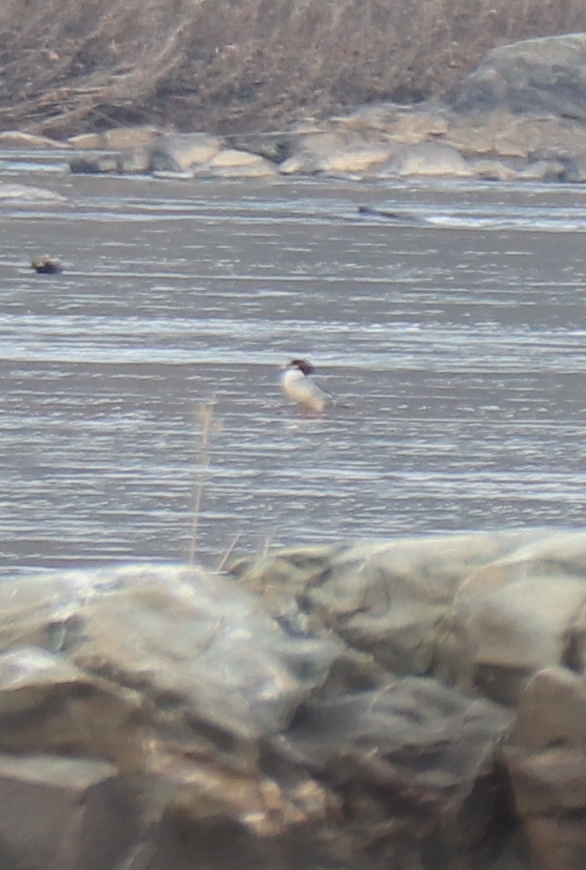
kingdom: Animalia
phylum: Chordata
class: Aves
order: Anseriformes
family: Anatidae
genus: Mergus
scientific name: Mergus merganser
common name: Common merganser
